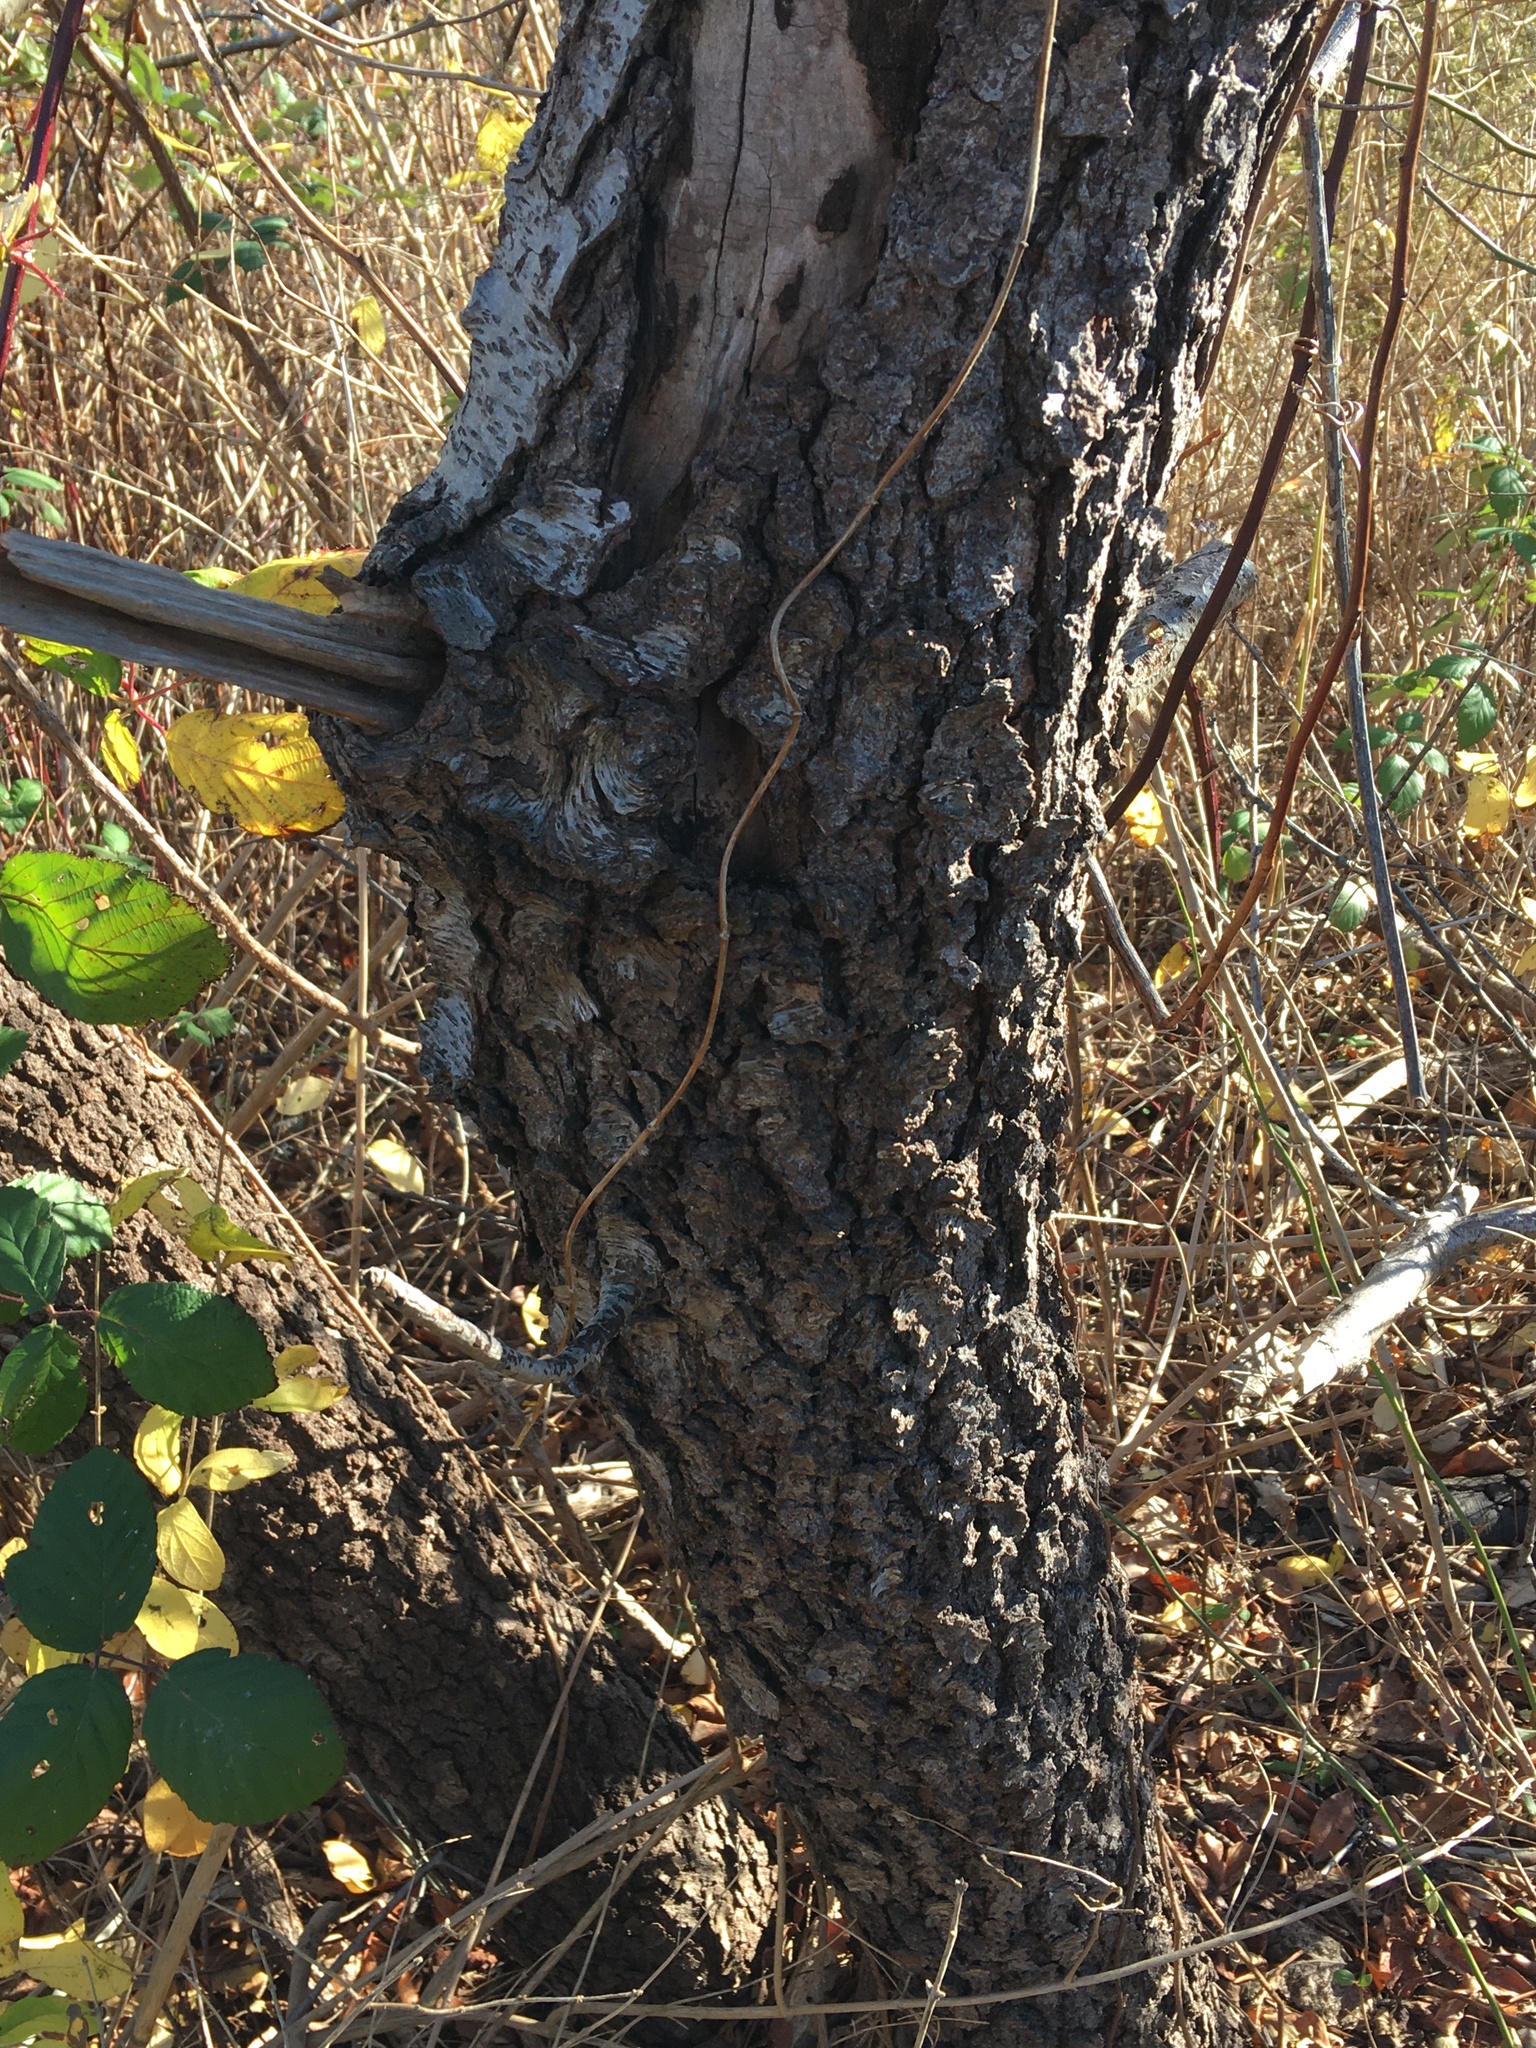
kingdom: Plantae
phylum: Tracheophyta
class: Magnoliopsida
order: Rosales
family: Rosaceae
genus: Prunus
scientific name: Prunus serotina
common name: Black cherry
